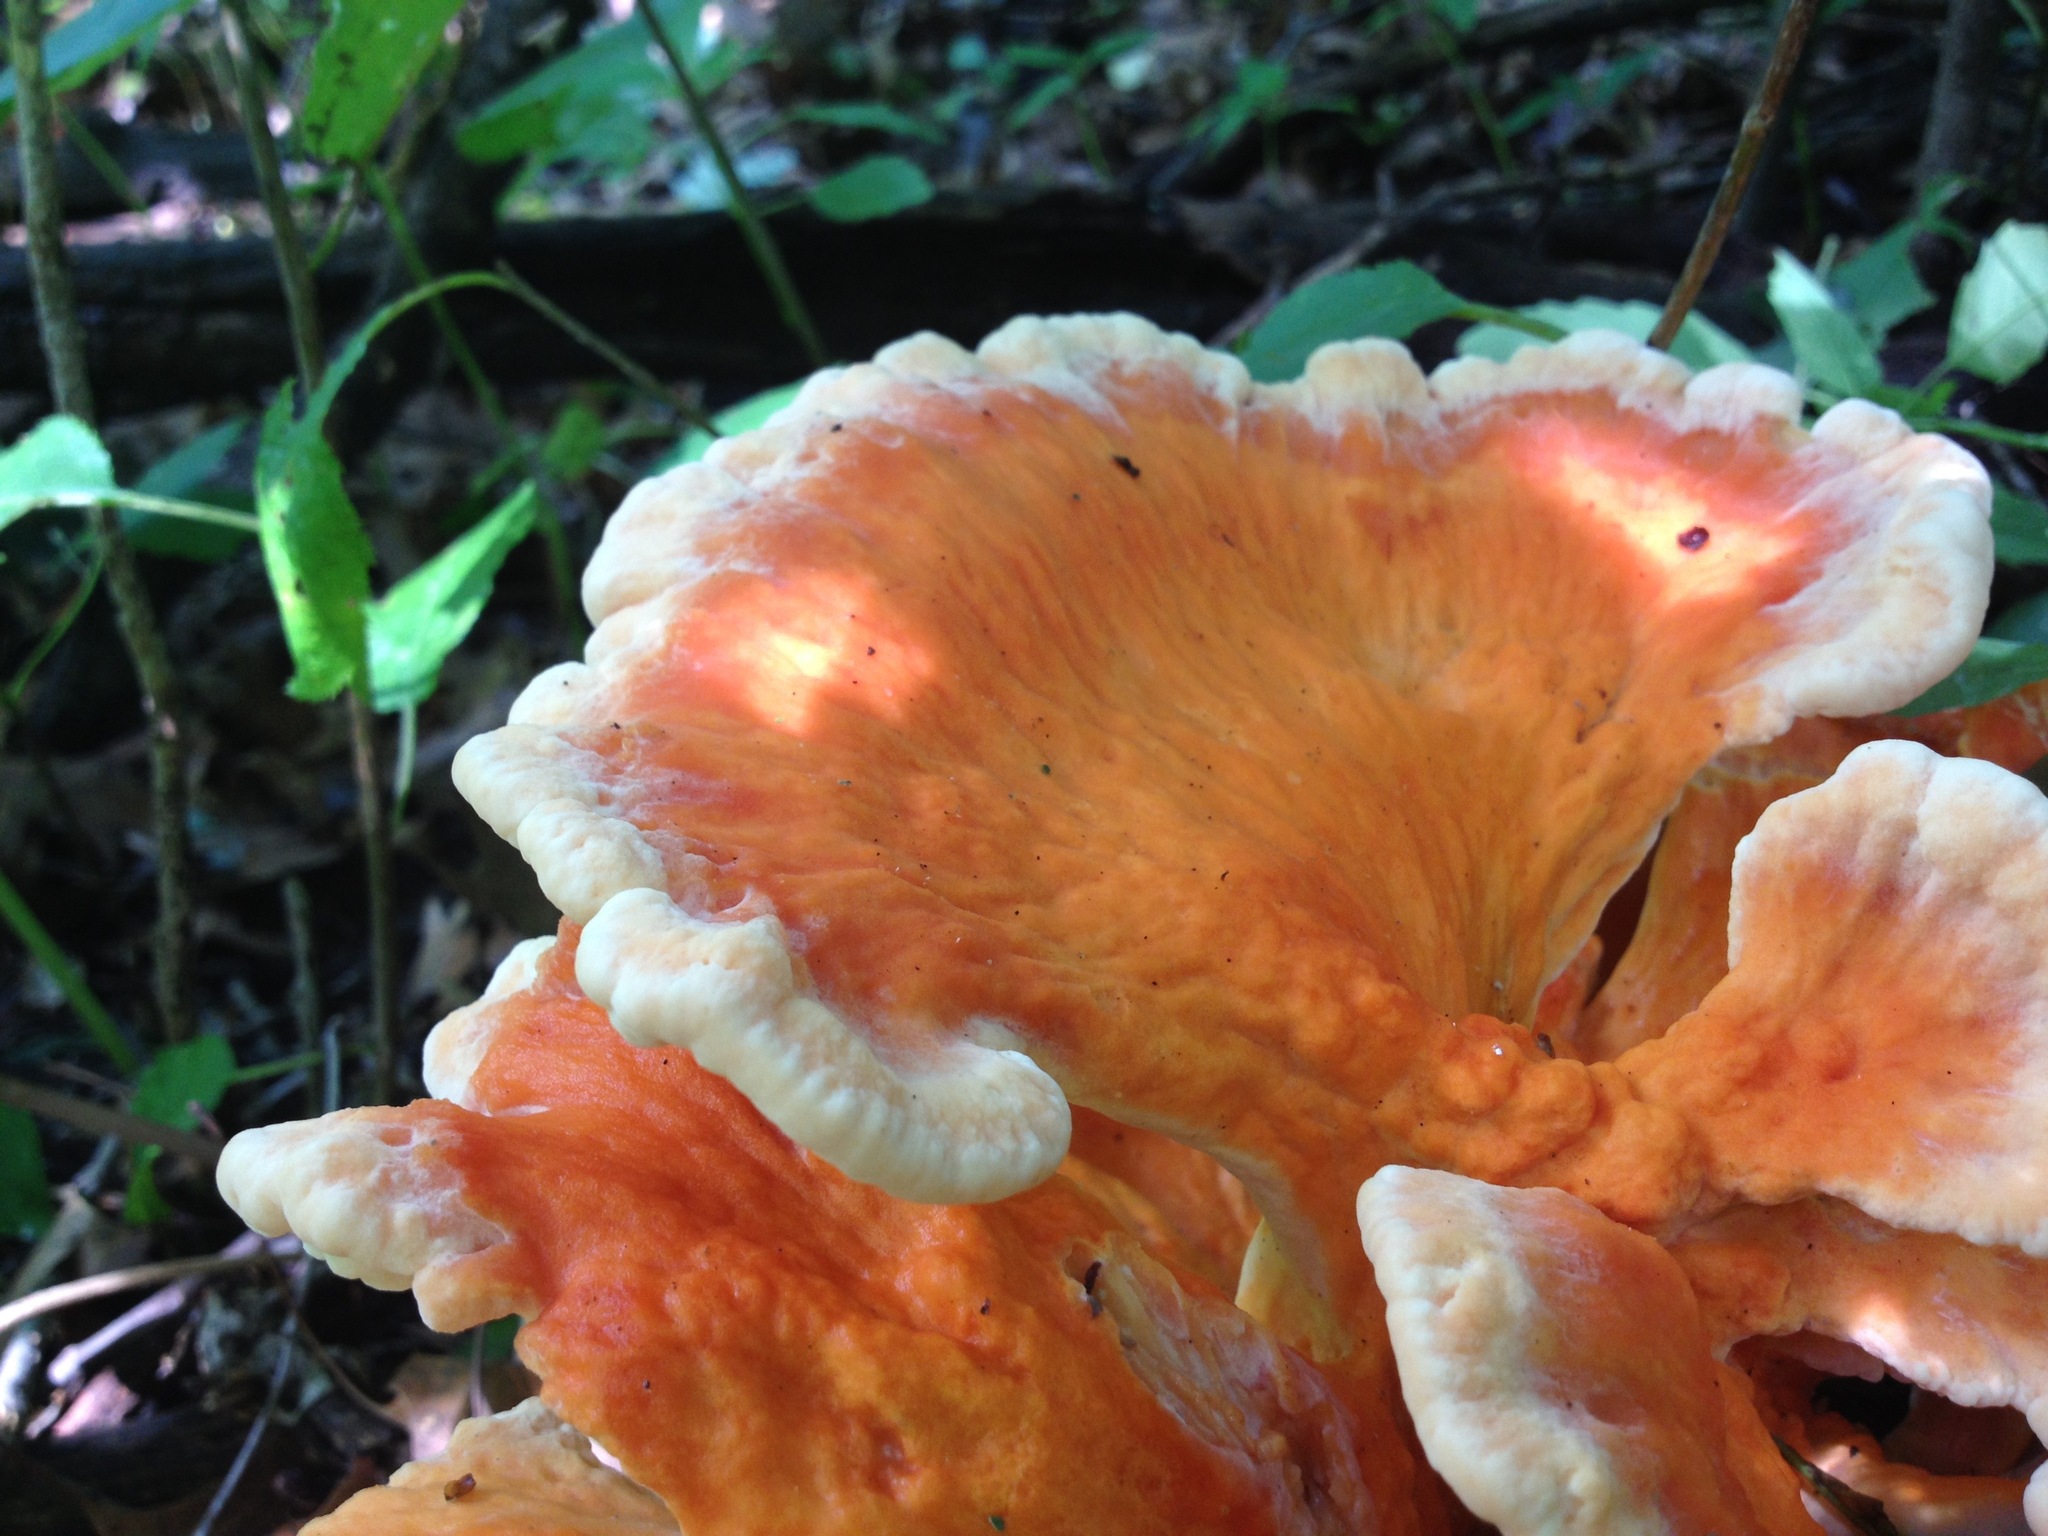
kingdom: Fungi
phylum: Basidiomycota
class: Agaricomycetes
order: Polyporales
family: Laetiporaceae
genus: Laetiporus
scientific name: Laetiporus sulphureus
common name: Chicken of the woods
